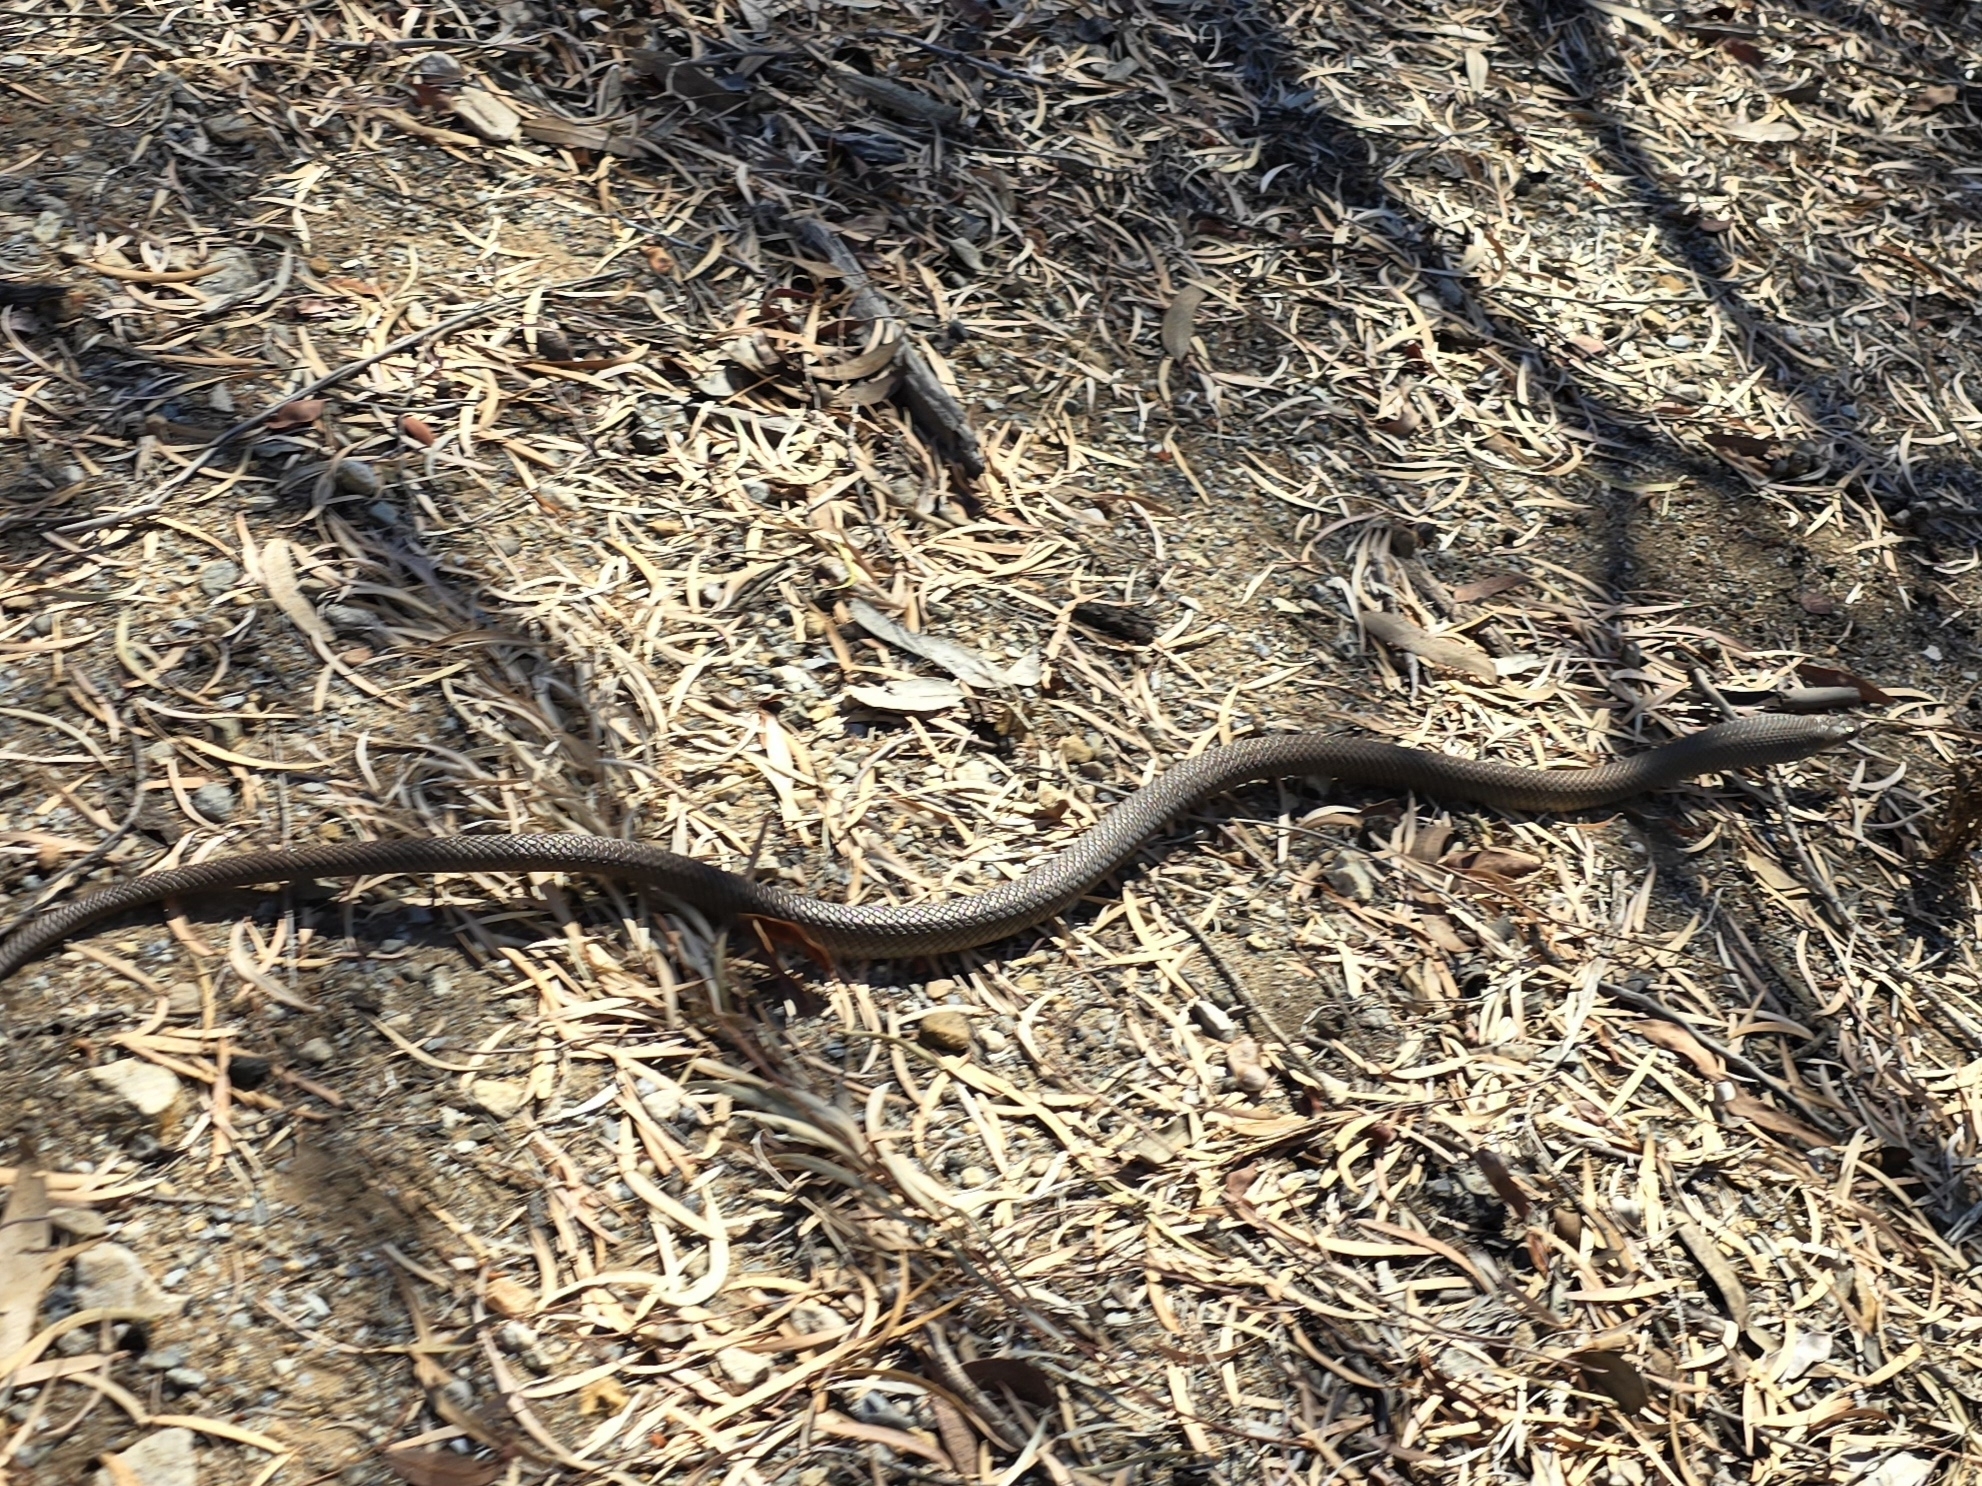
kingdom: Animalia
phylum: Chordata
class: Squamata
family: Elapidae
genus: Pseudonaja
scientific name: Pseudonaja textilis
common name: Eastern brown snake
